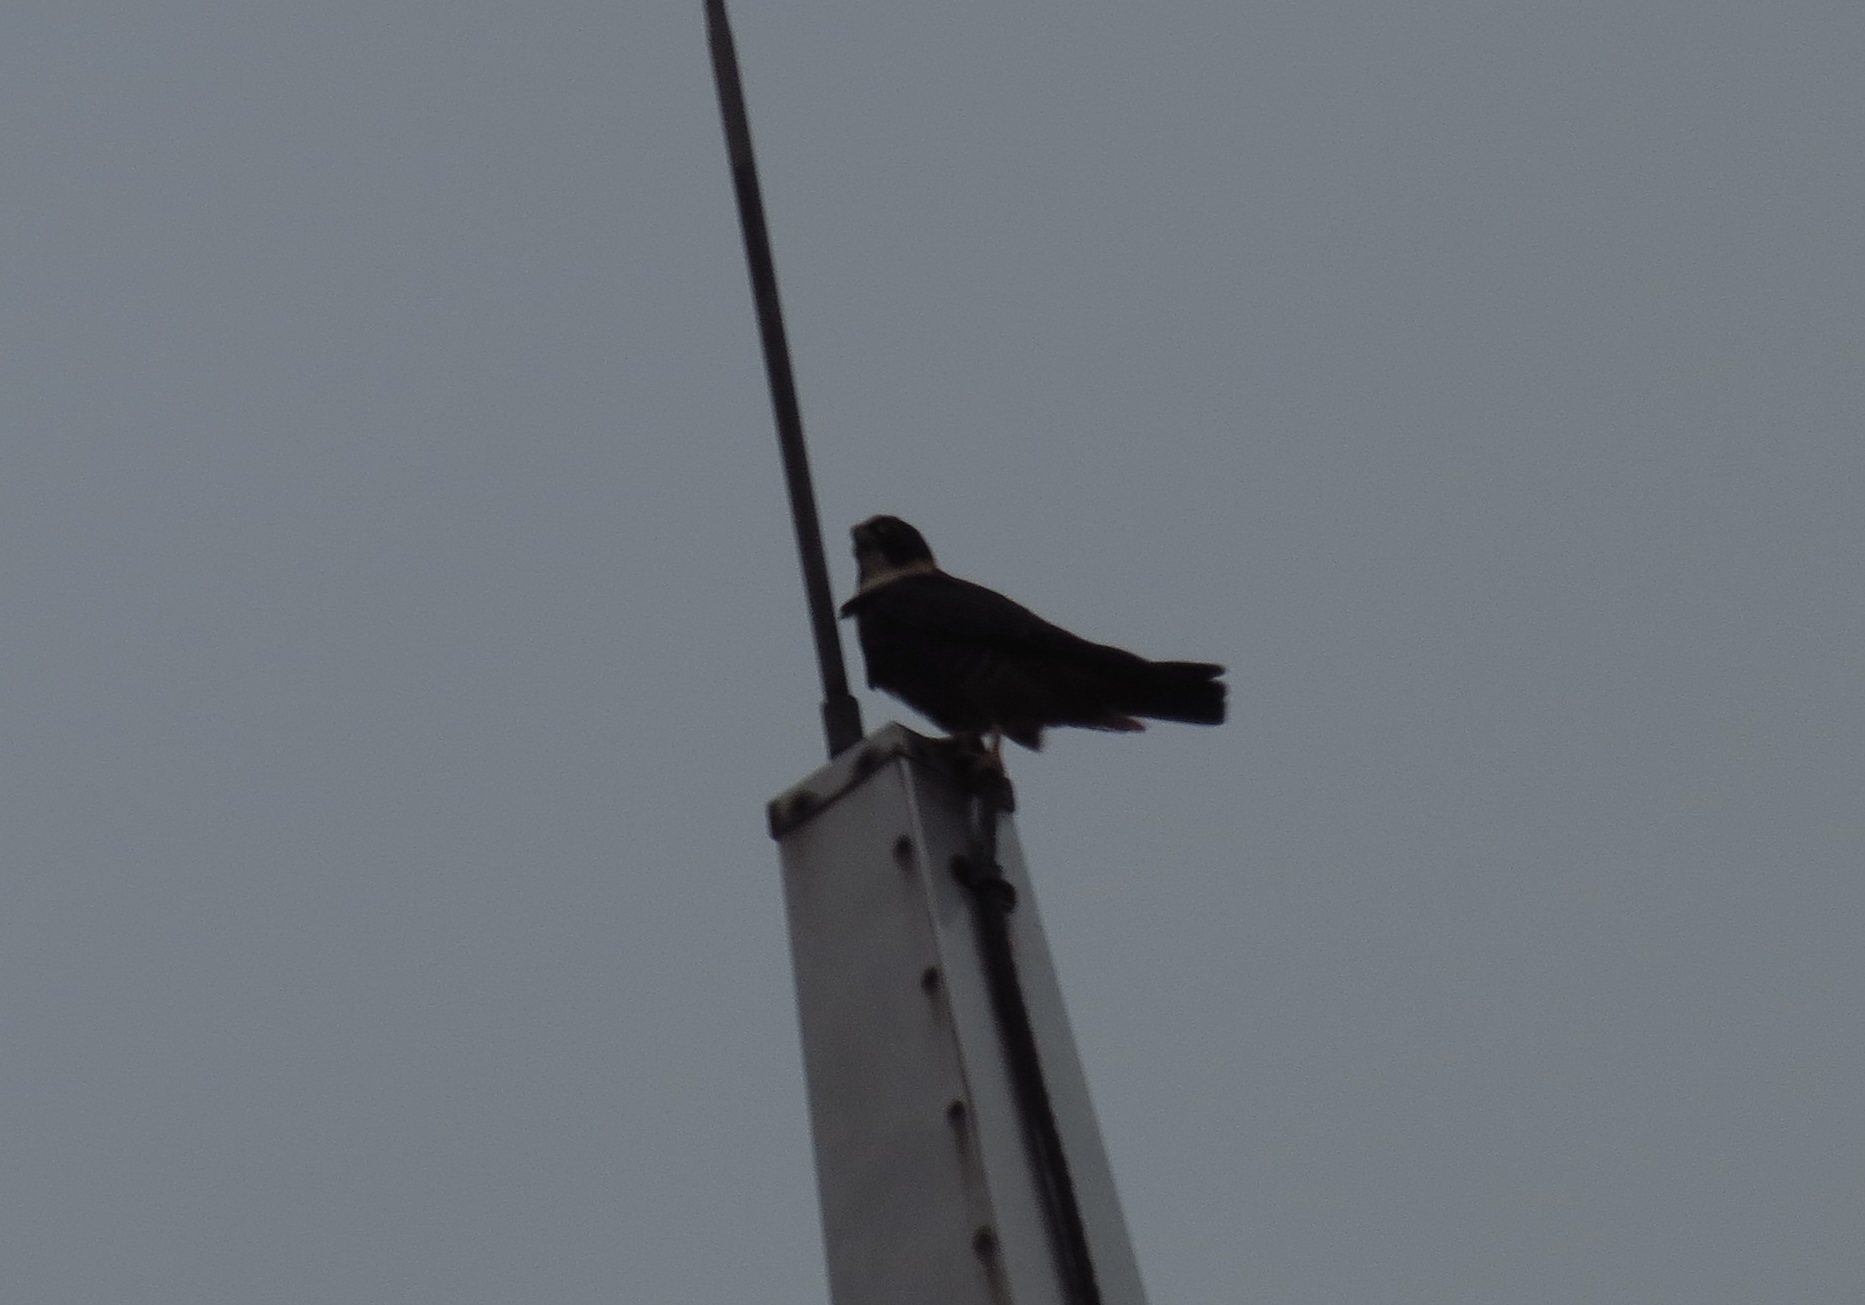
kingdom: Animalia
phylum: Chordata
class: Aves
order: Falconiformes
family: Falconidae
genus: Falco
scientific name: Falco rufigularis
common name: Bat falcon
